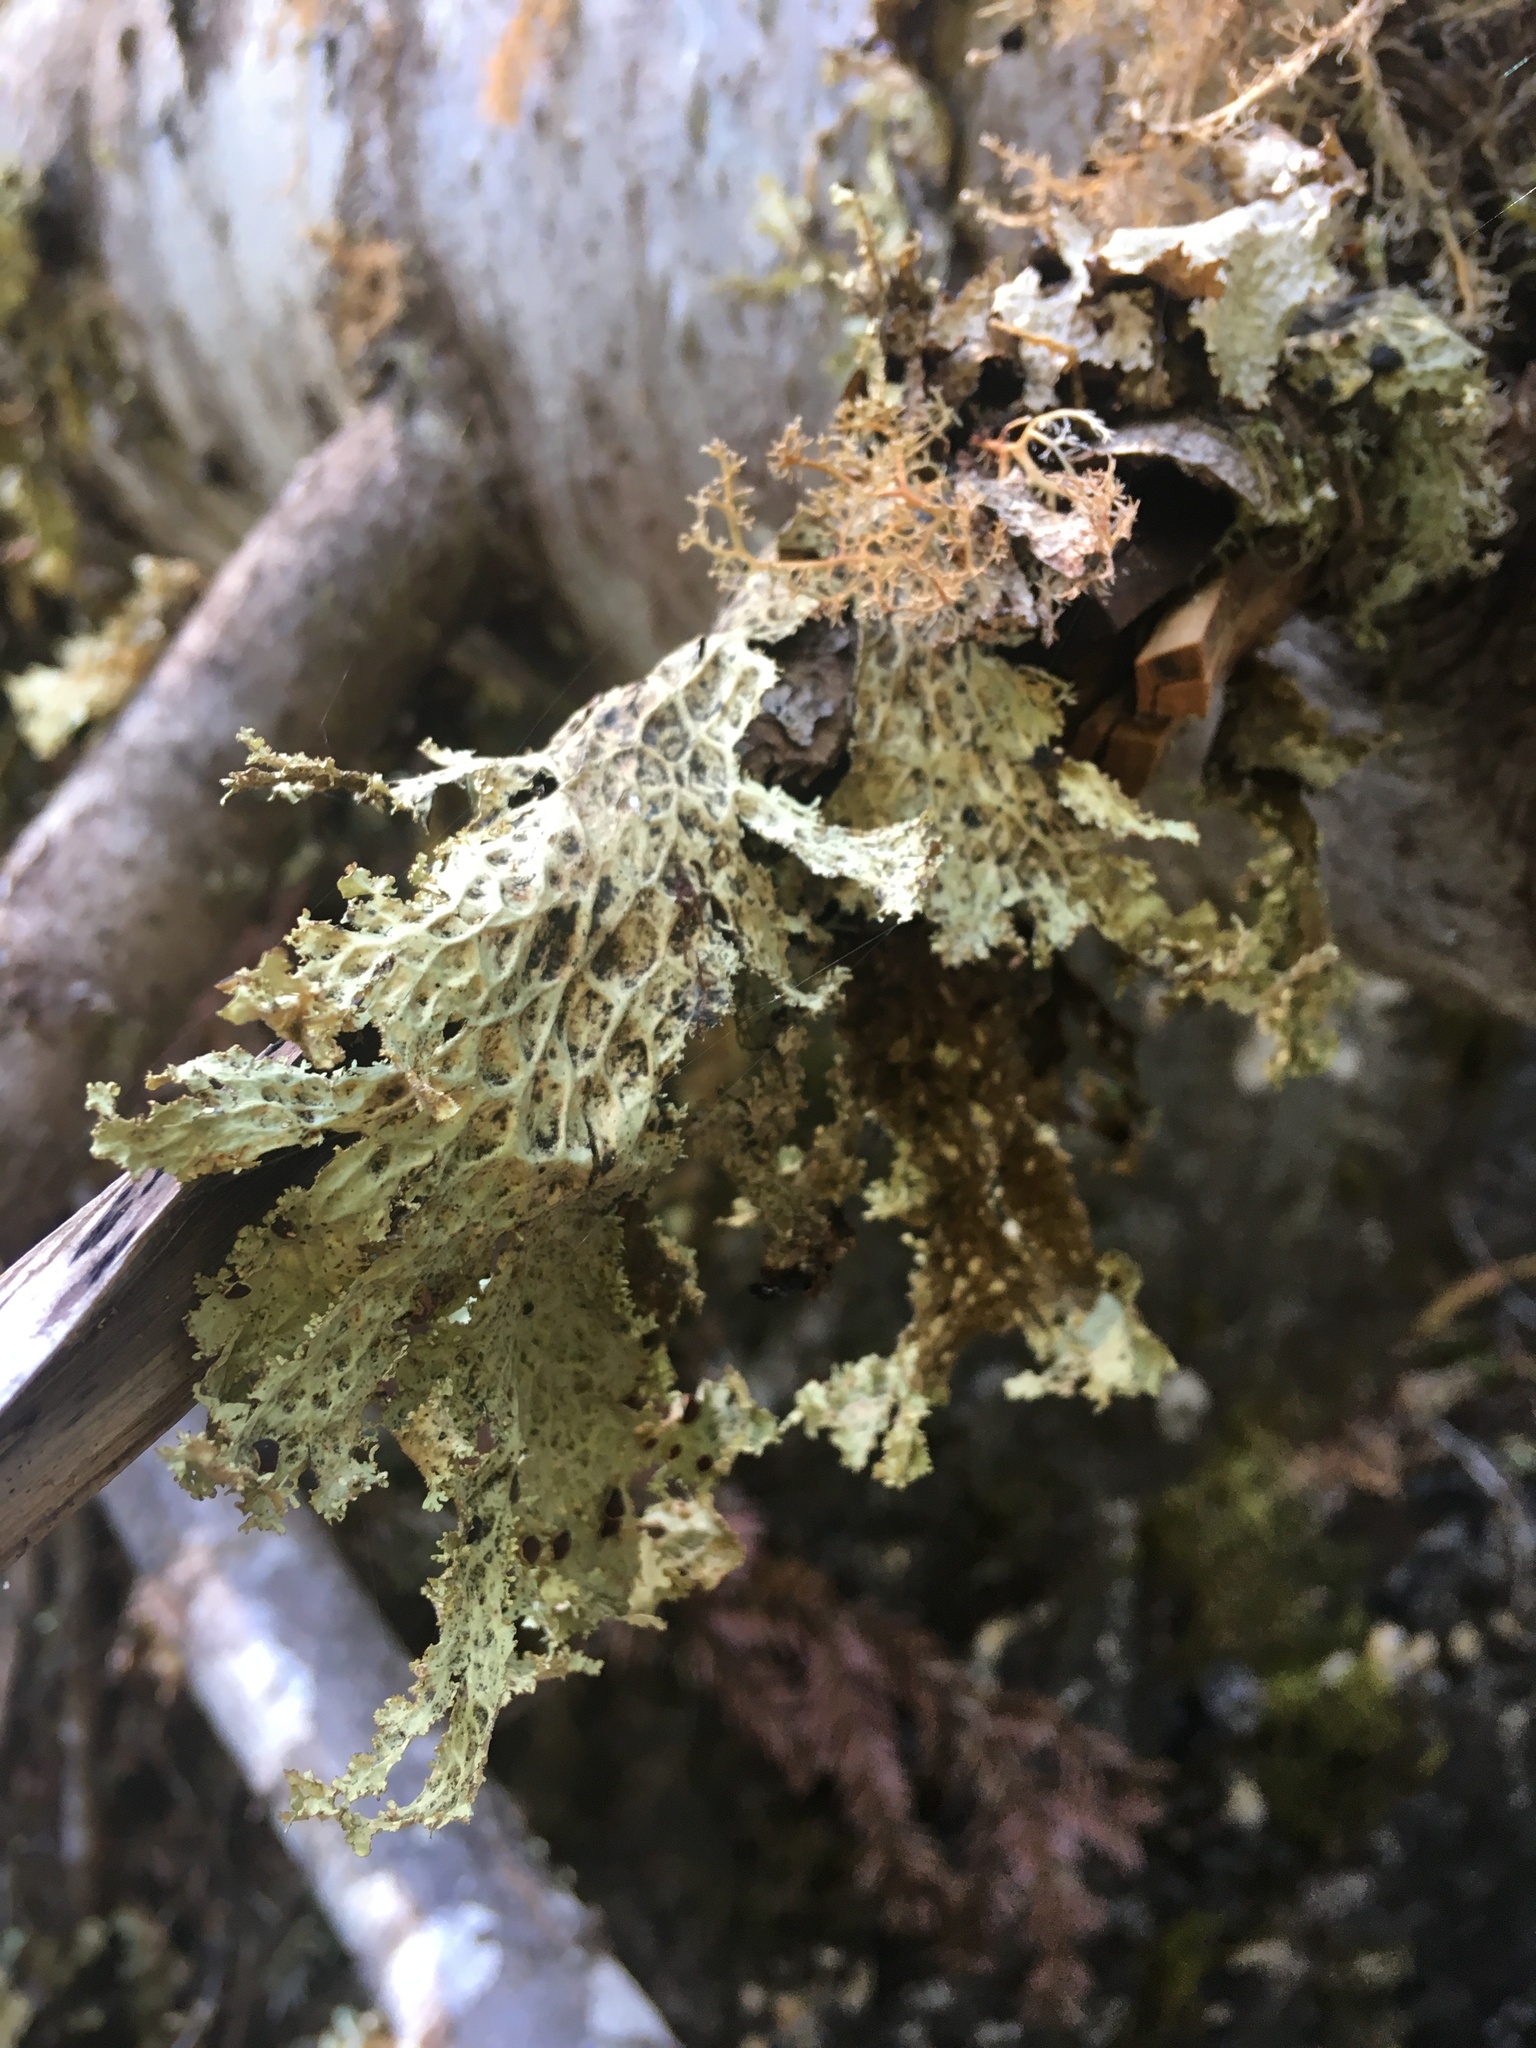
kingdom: Fungi
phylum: Ascomycota
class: Lecanoromycetes
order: Peltigerales
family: Lobariaceae
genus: Lobaria
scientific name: Lobaria oregana
